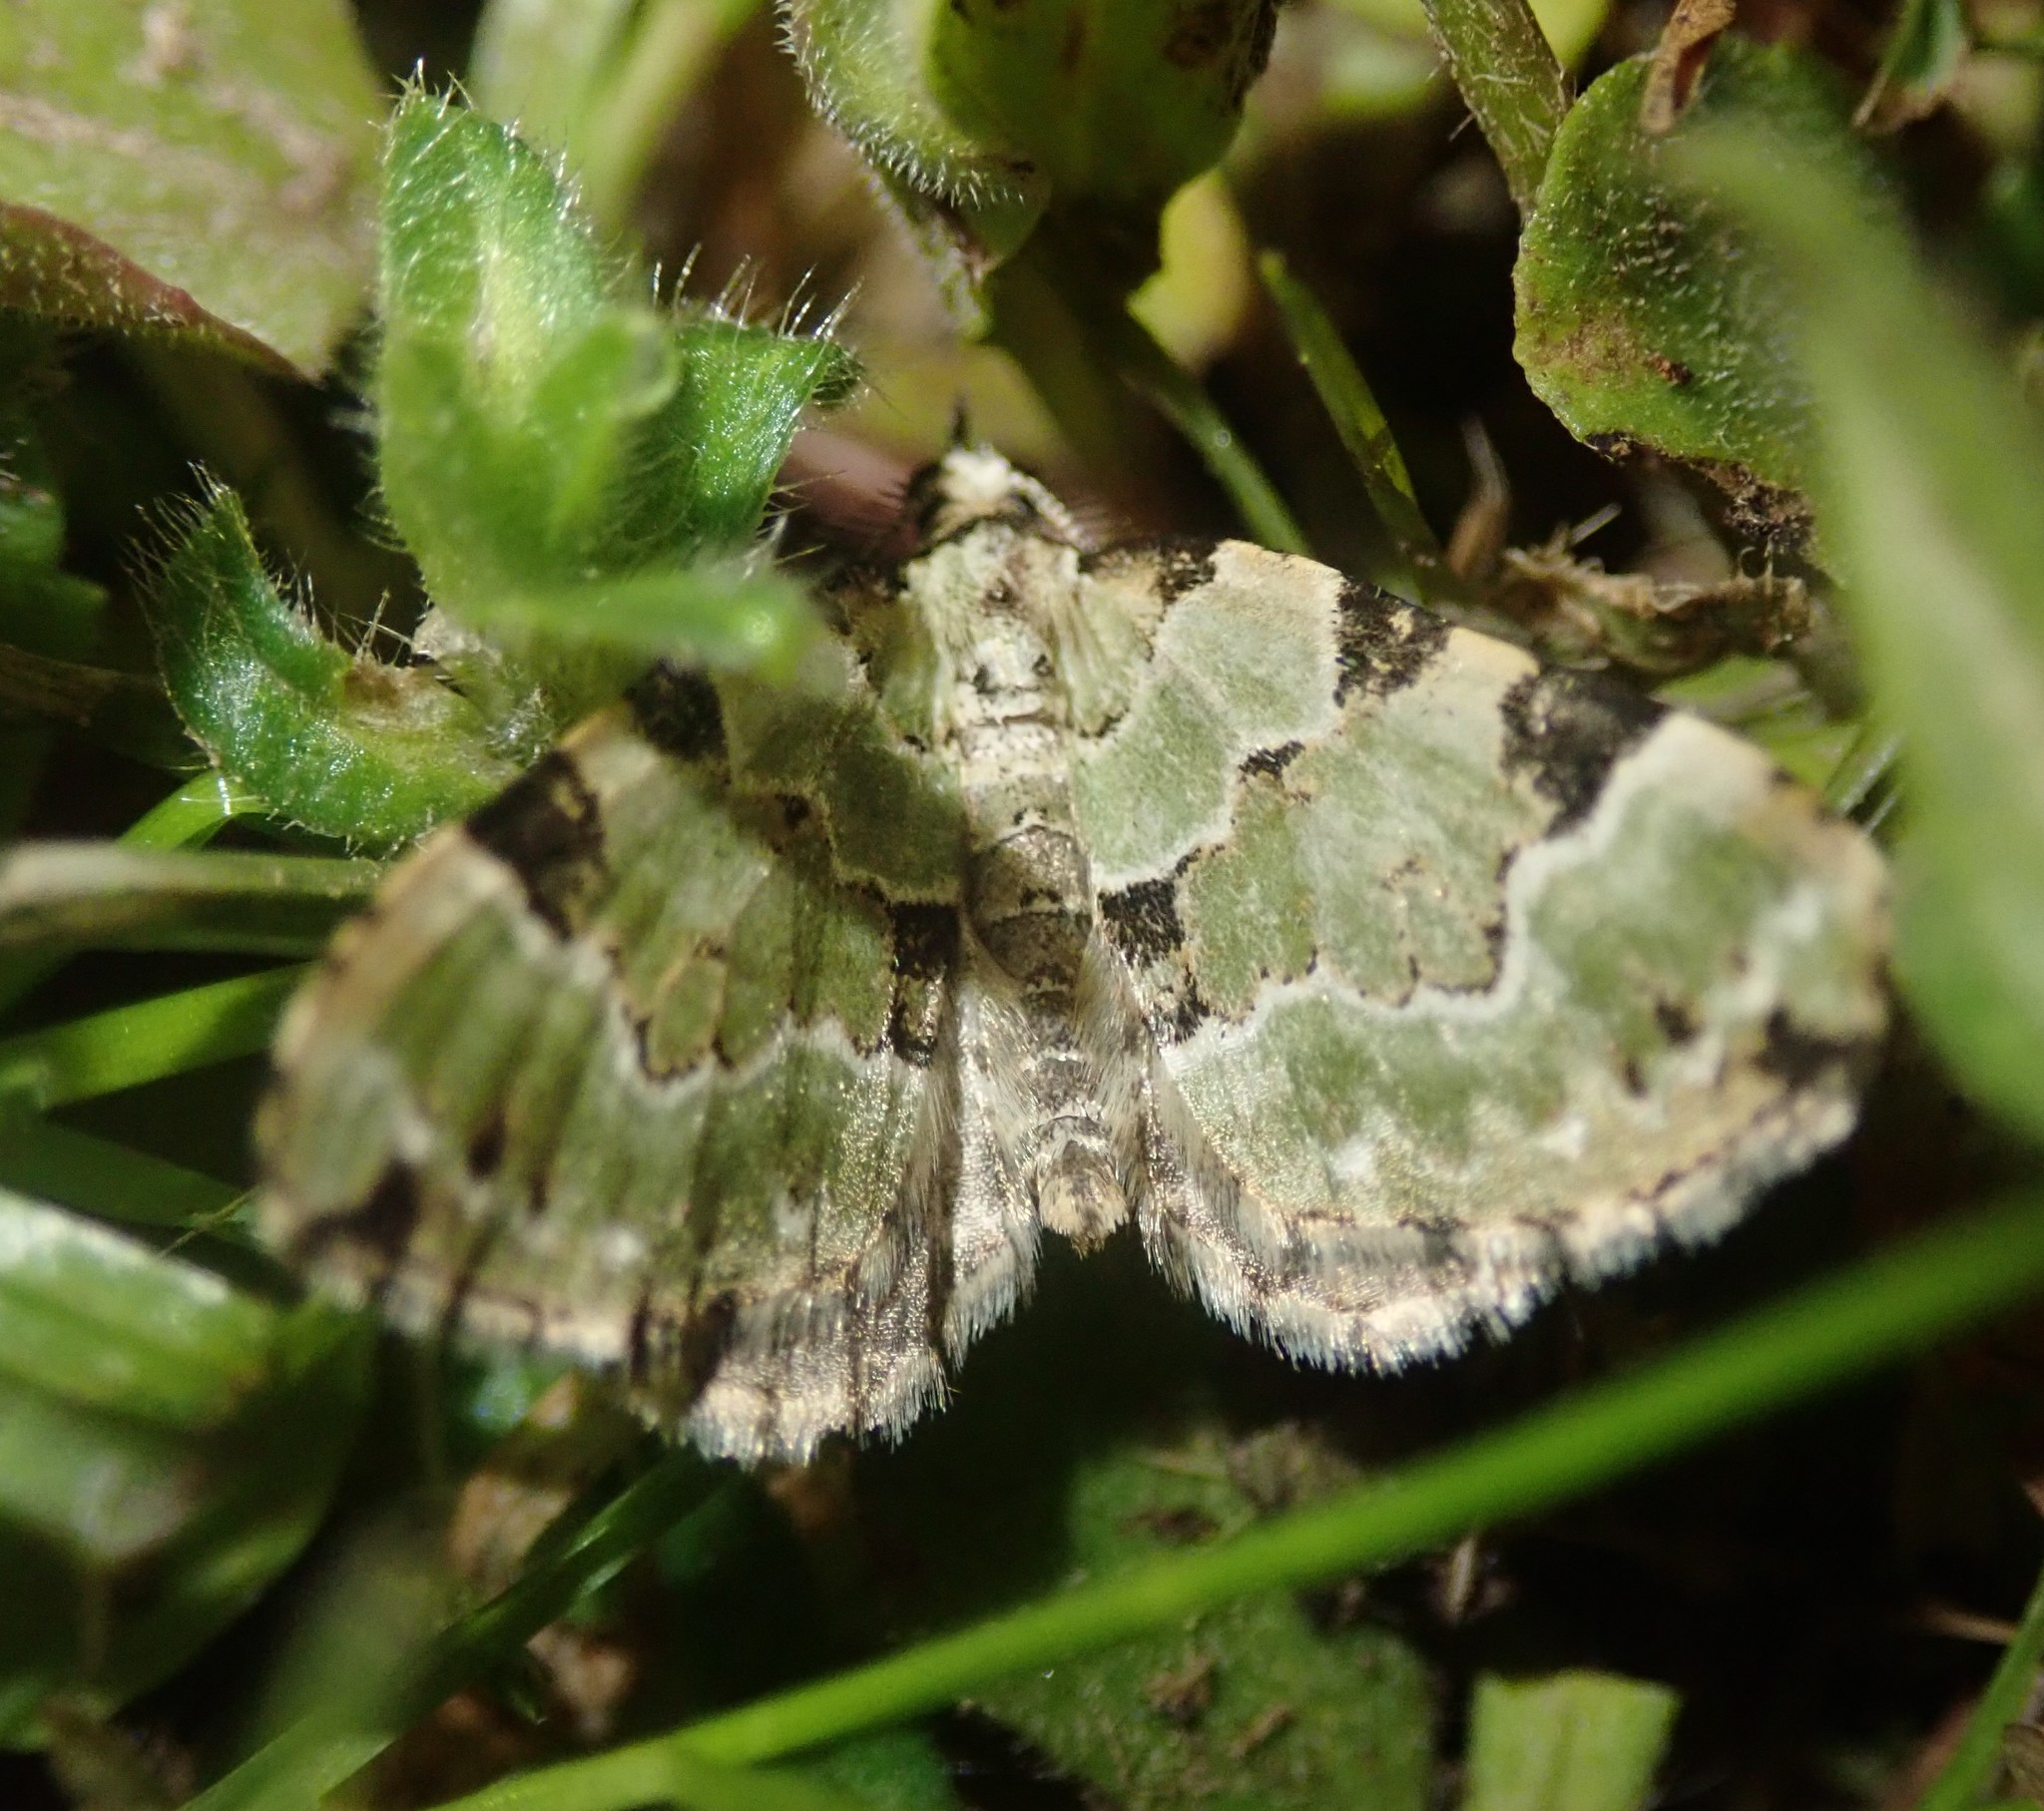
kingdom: Animalia
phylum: Arthropoda
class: Insecta
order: Lepidoptera
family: Geometridae
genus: Colostygia
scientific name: Colostygia pectinataria
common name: Green carpet
